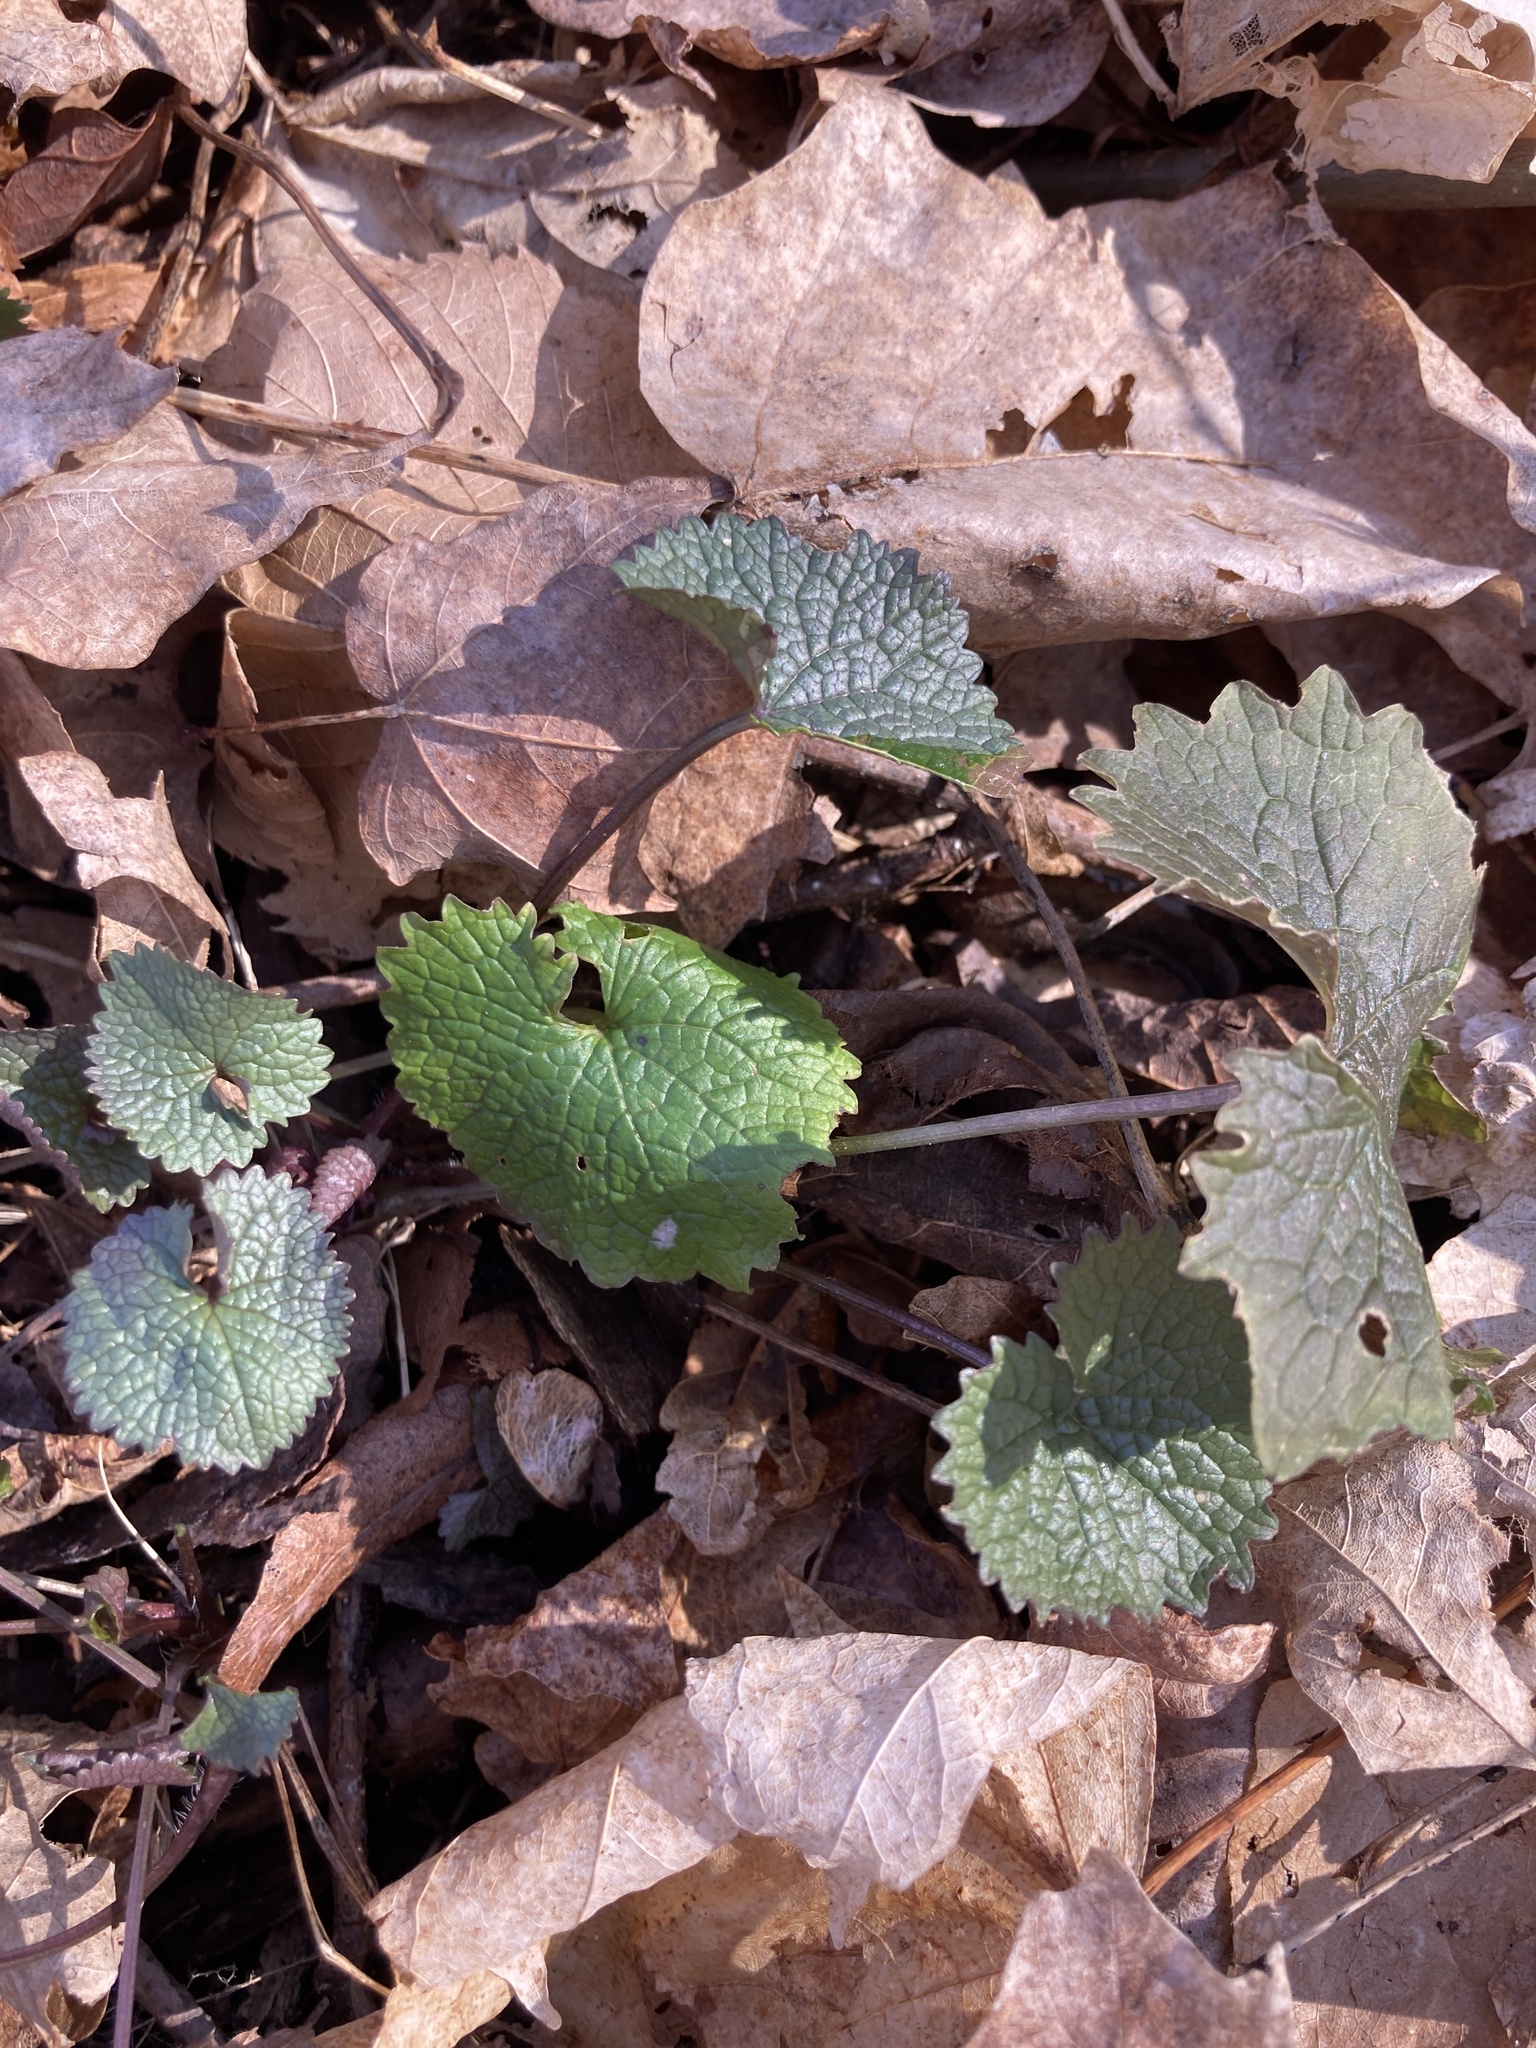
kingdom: Plantae
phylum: Tracheophyta
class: Magnoliopsida
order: Brassicales
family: Brassicaceae
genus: Alliaria
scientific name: Alliaria petiolata
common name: Garlic mustard
